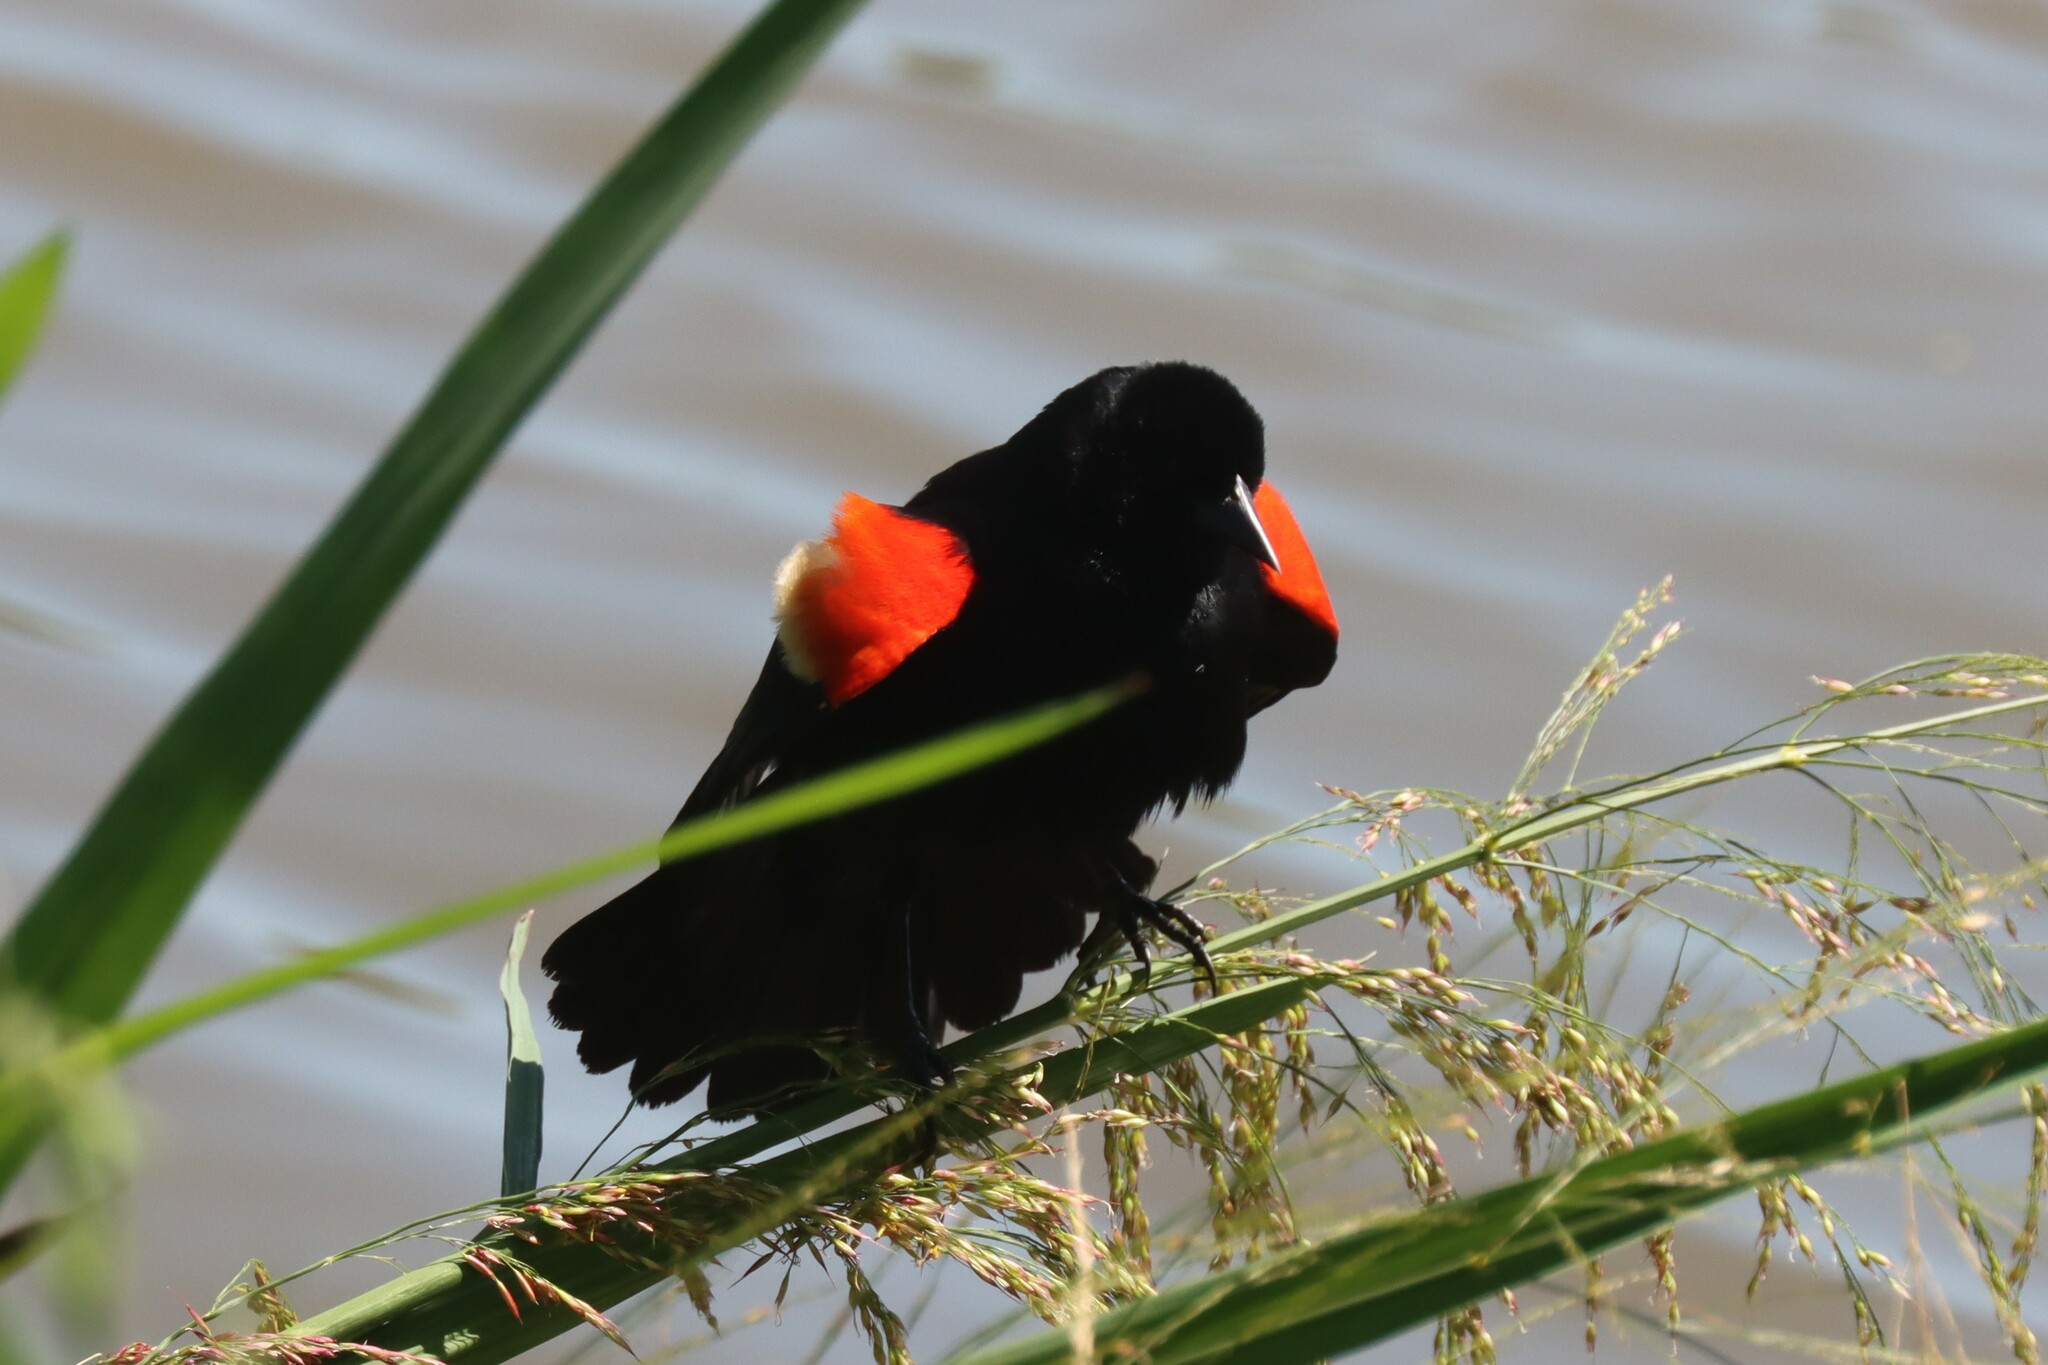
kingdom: Animalia
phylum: Chordata
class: Aves
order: Passeriformes
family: Icteridae
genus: Agelaius
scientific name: Agelaius phoeniceus
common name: Red-winged blackbird
